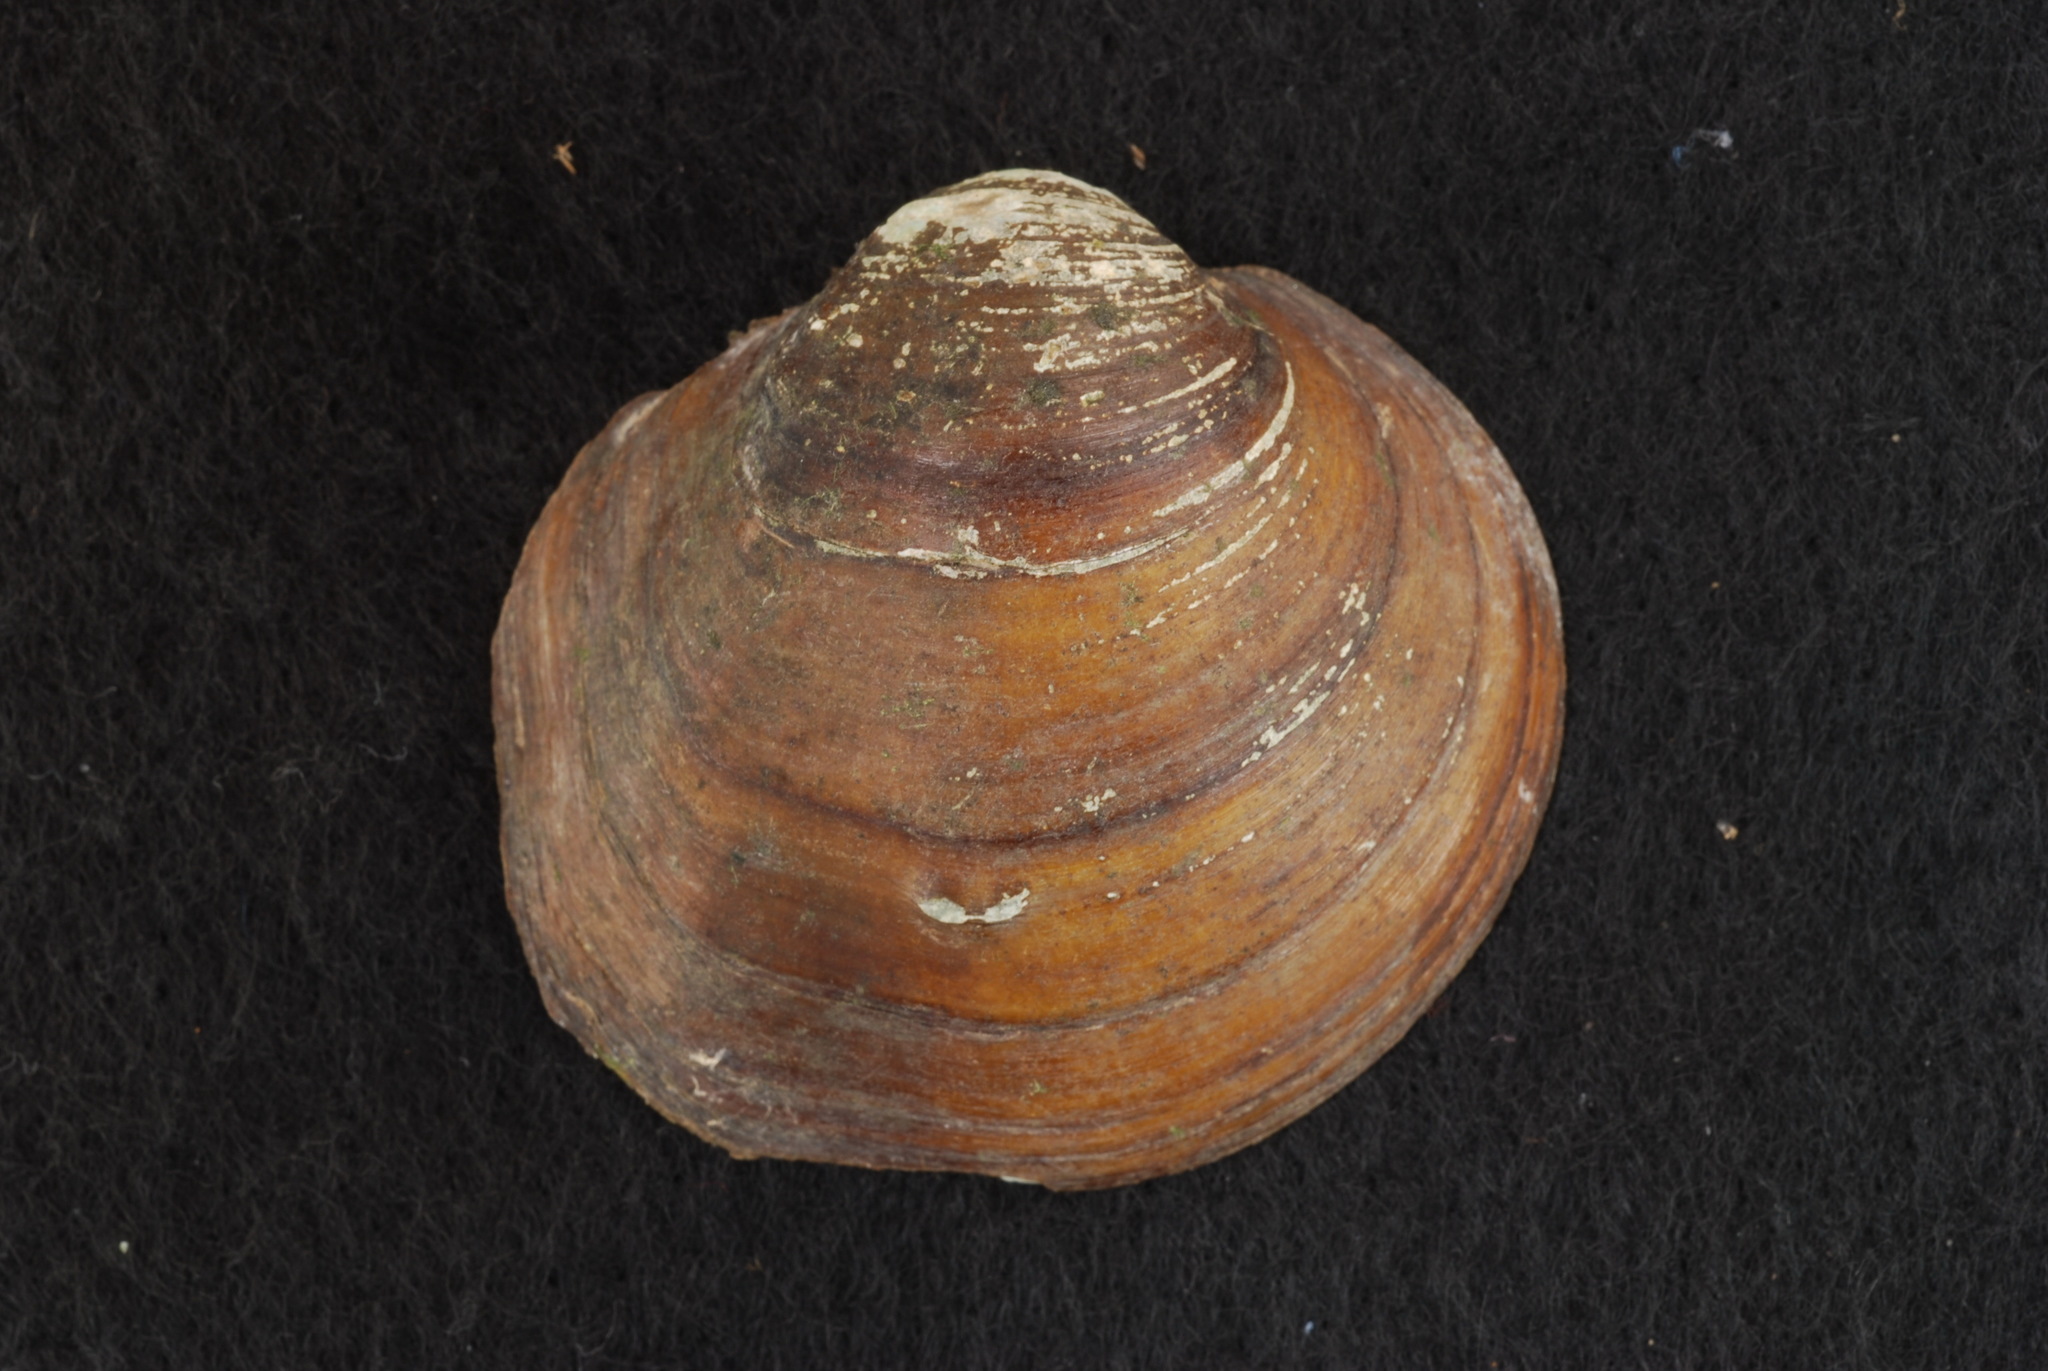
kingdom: Animalia
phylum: Mollusca
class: Bivalvia
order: Unionida
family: Unionidae
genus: Cyclonaias
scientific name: Cyclonaias pustulosa
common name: Pimpleback
